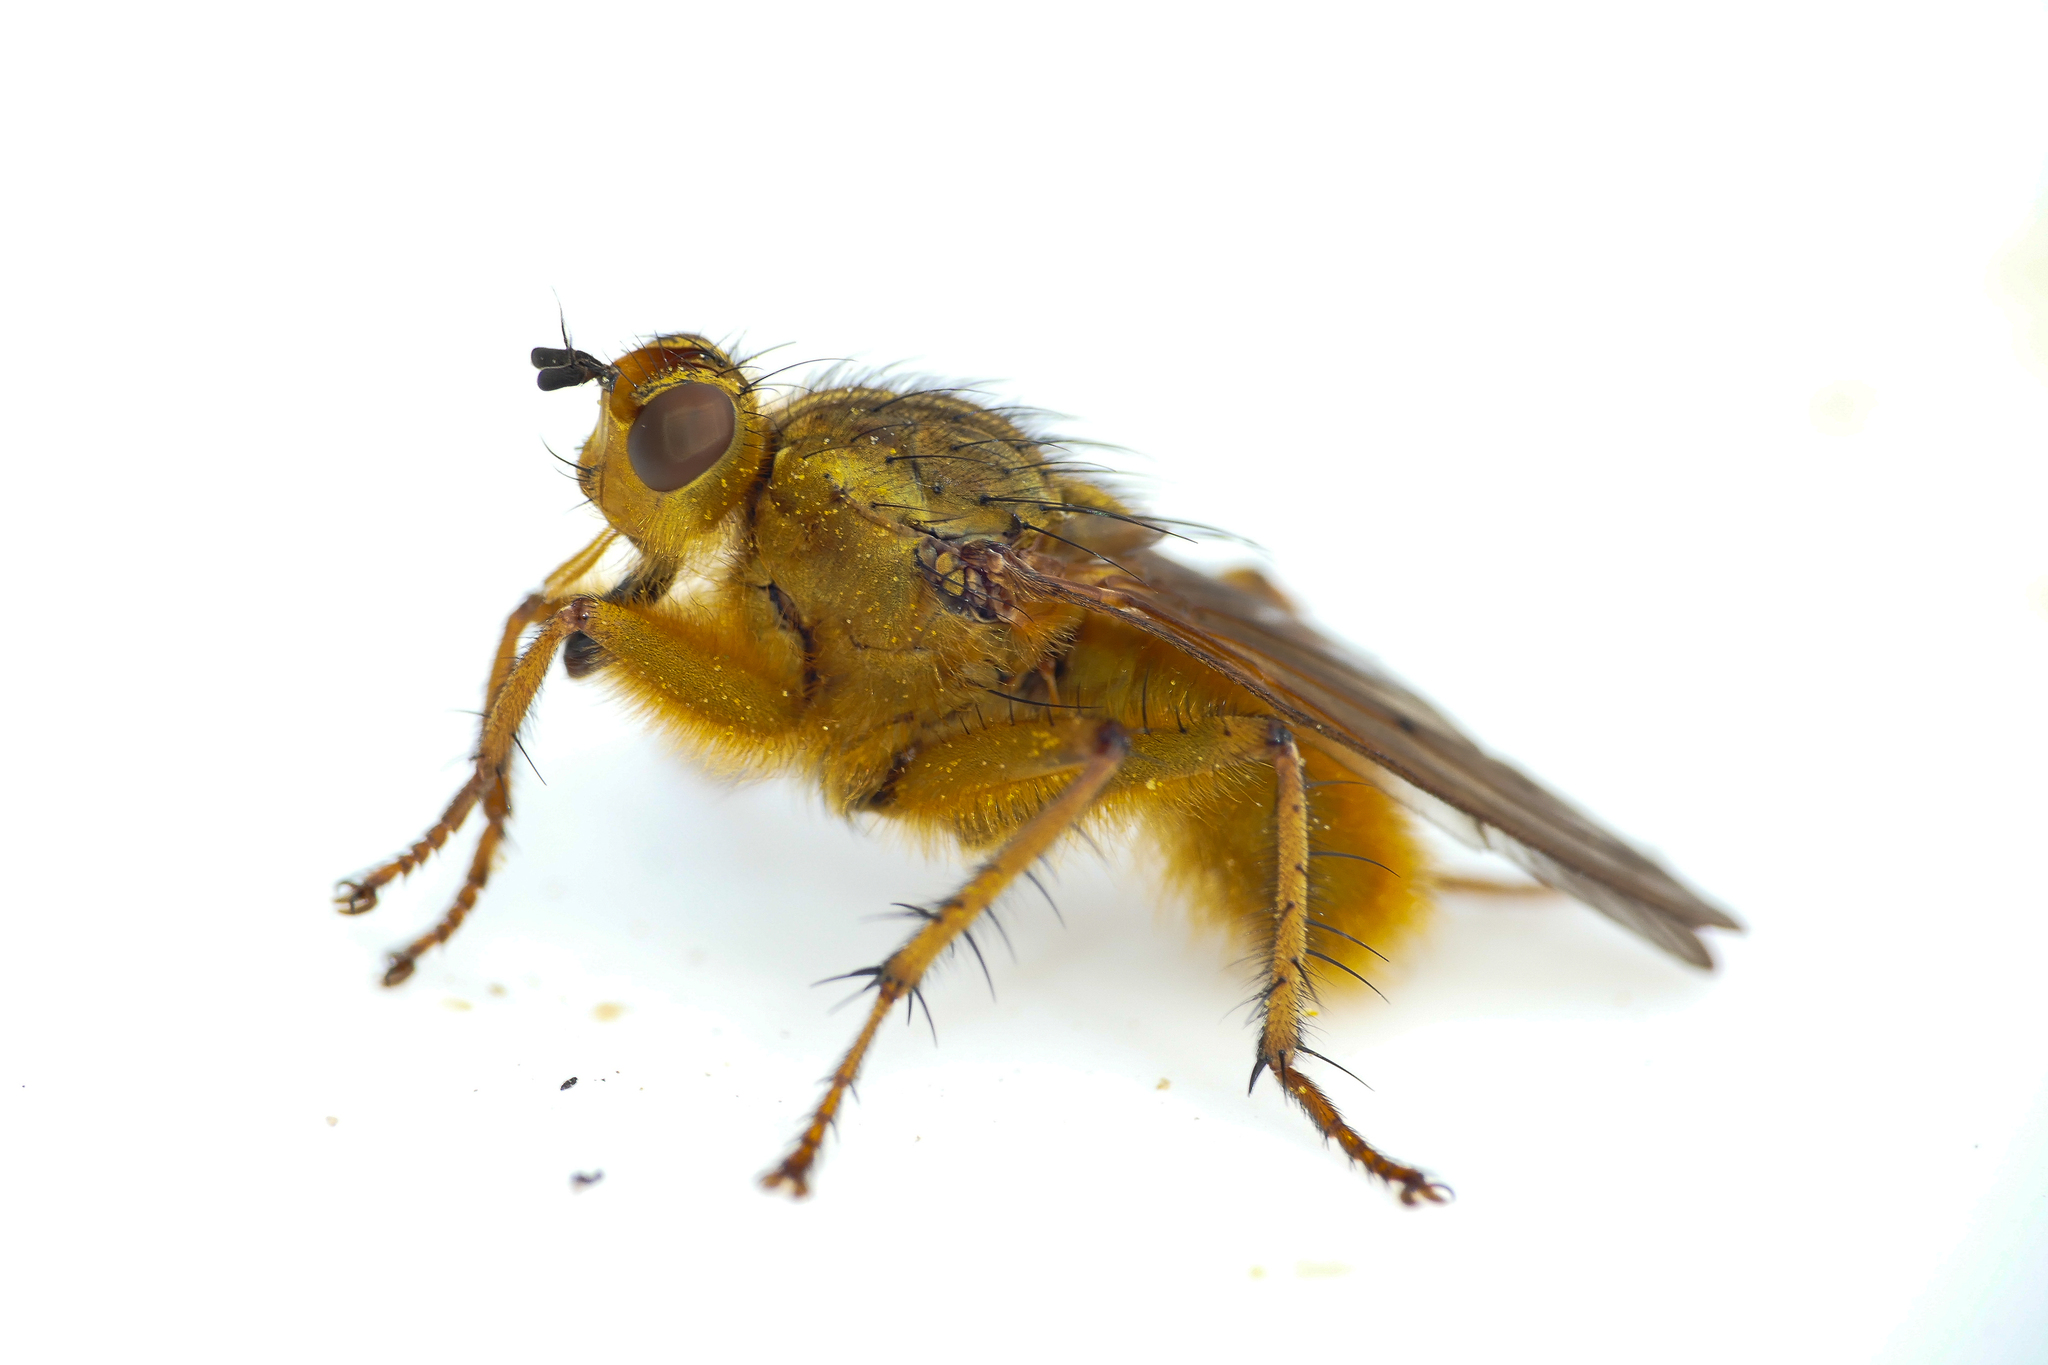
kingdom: Animalia
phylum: Arthropoda
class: Insecta
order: Diptera
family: Scathophagidae
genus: Scathophaga
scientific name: Scathophaga stercoraria
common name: Yellow dung fly
